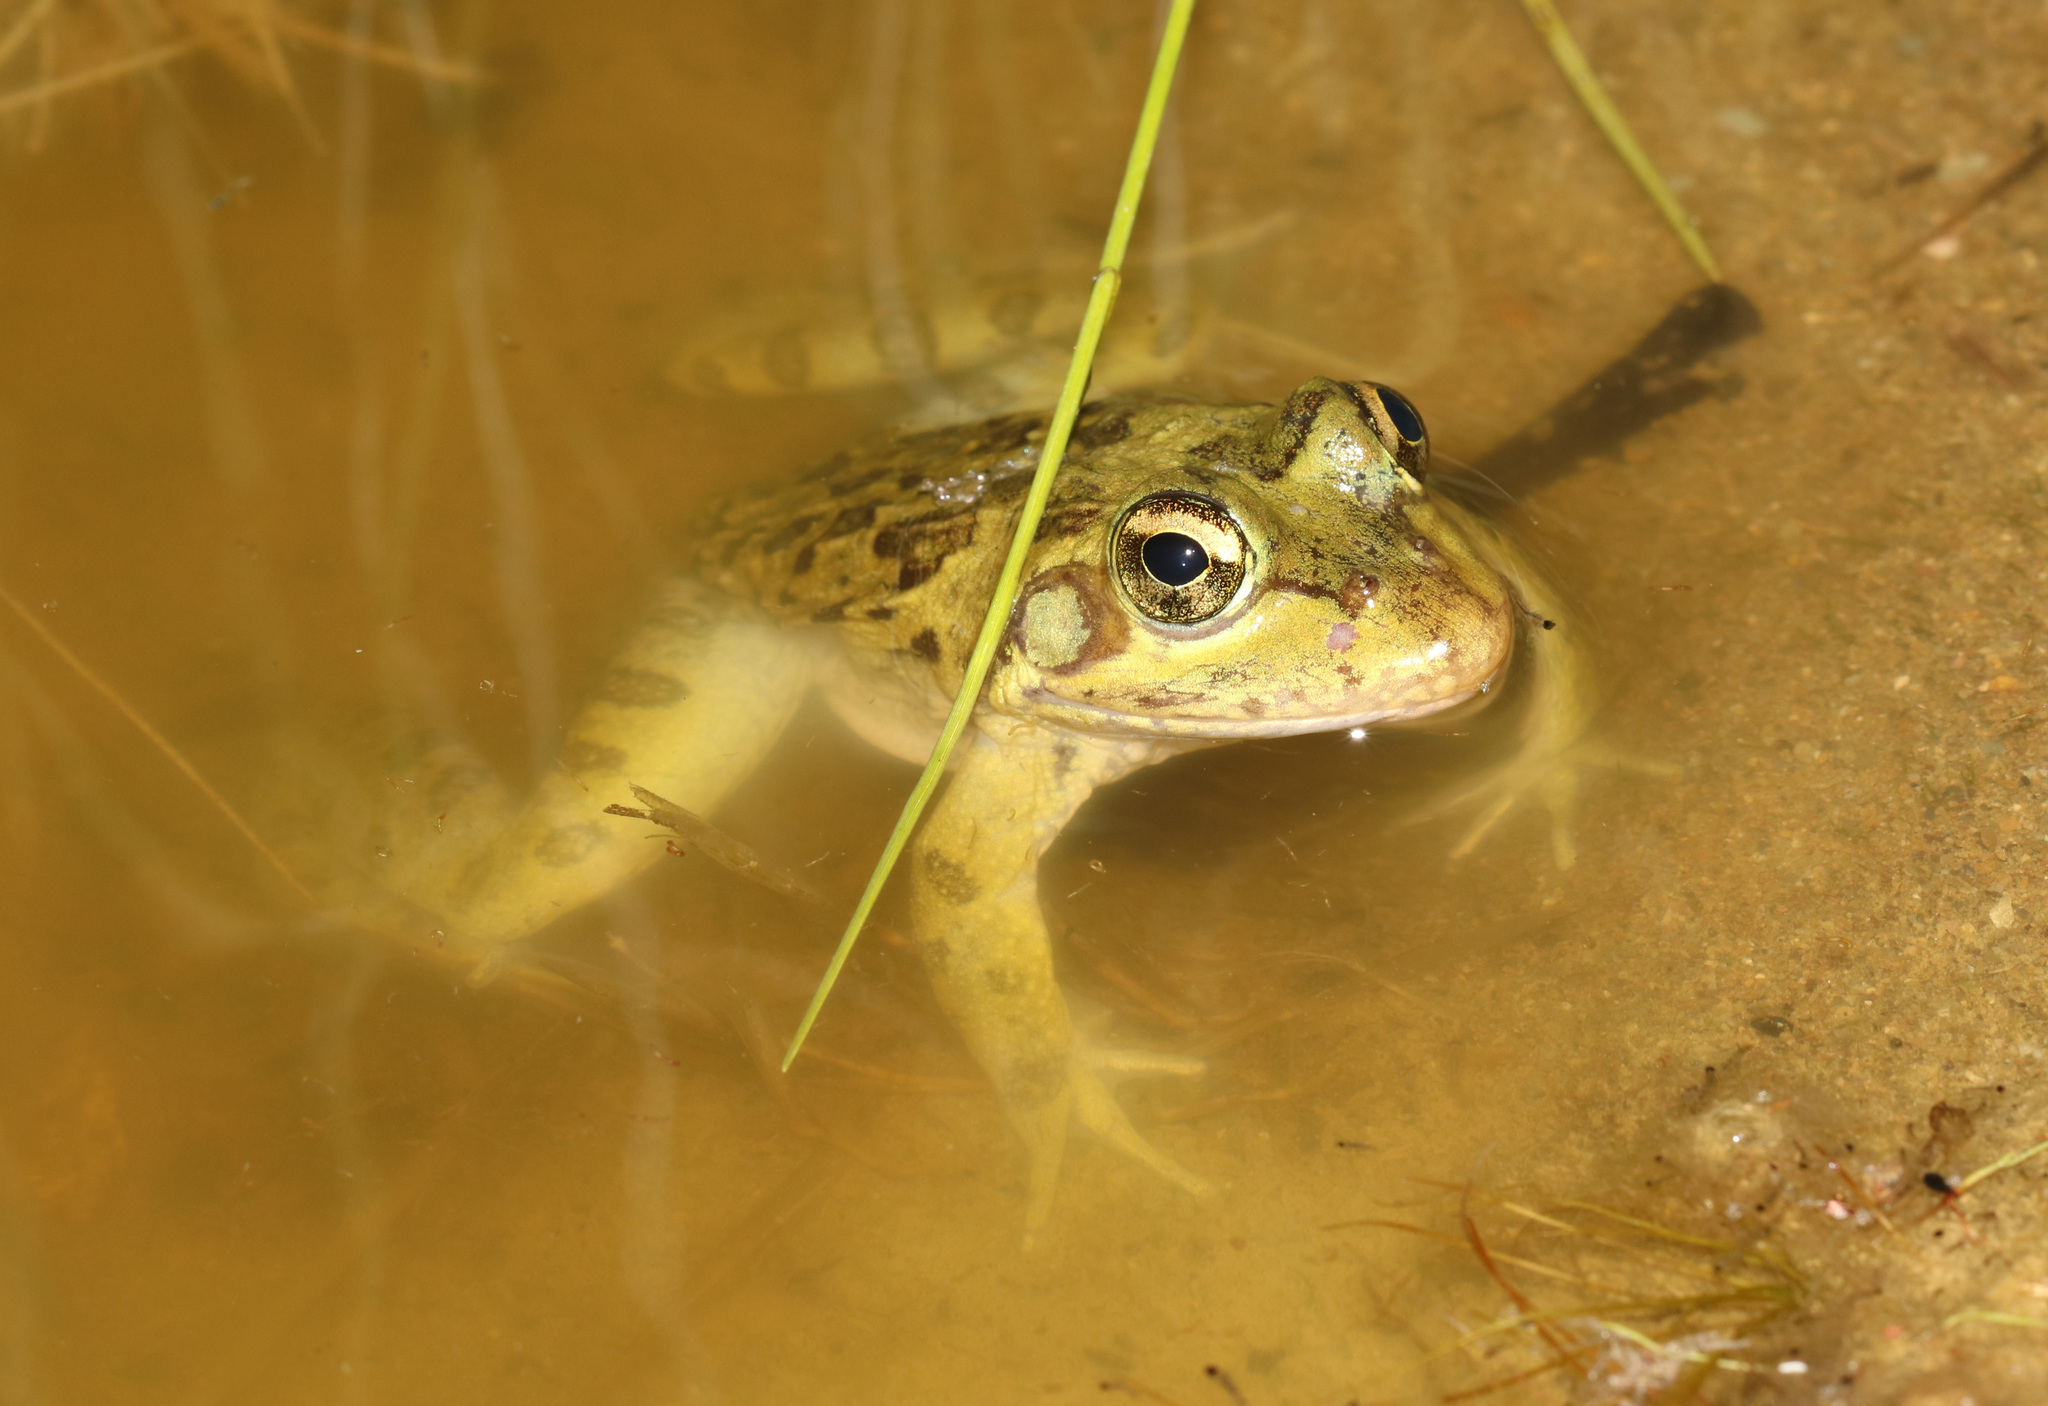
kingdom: Animalia
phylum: Chordata
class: Amphibia
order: Anura
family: Pyxicephalidae
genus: Amietia
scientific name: Amietia poyntoni
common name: Poynton's river frog
